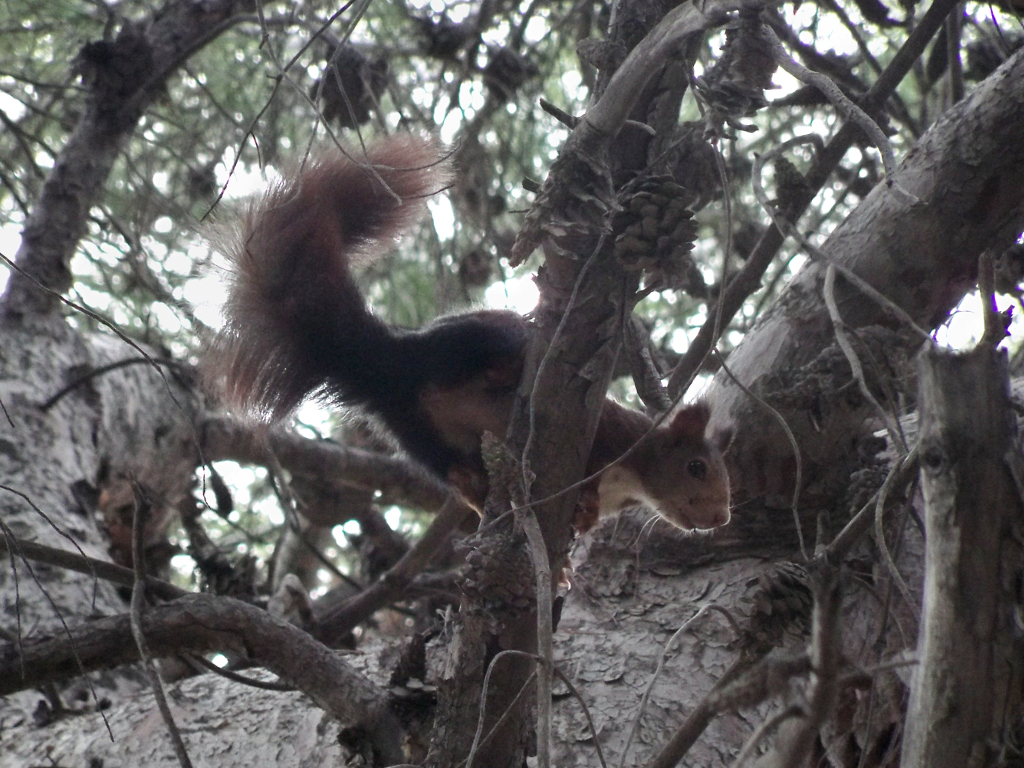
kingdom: Animalia
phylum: Chordata
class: Mammalia
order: Rodentia
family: Sciuridae
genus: Sciurus
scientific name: Sciurus vulgaris
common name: Eurasian red squirrel
